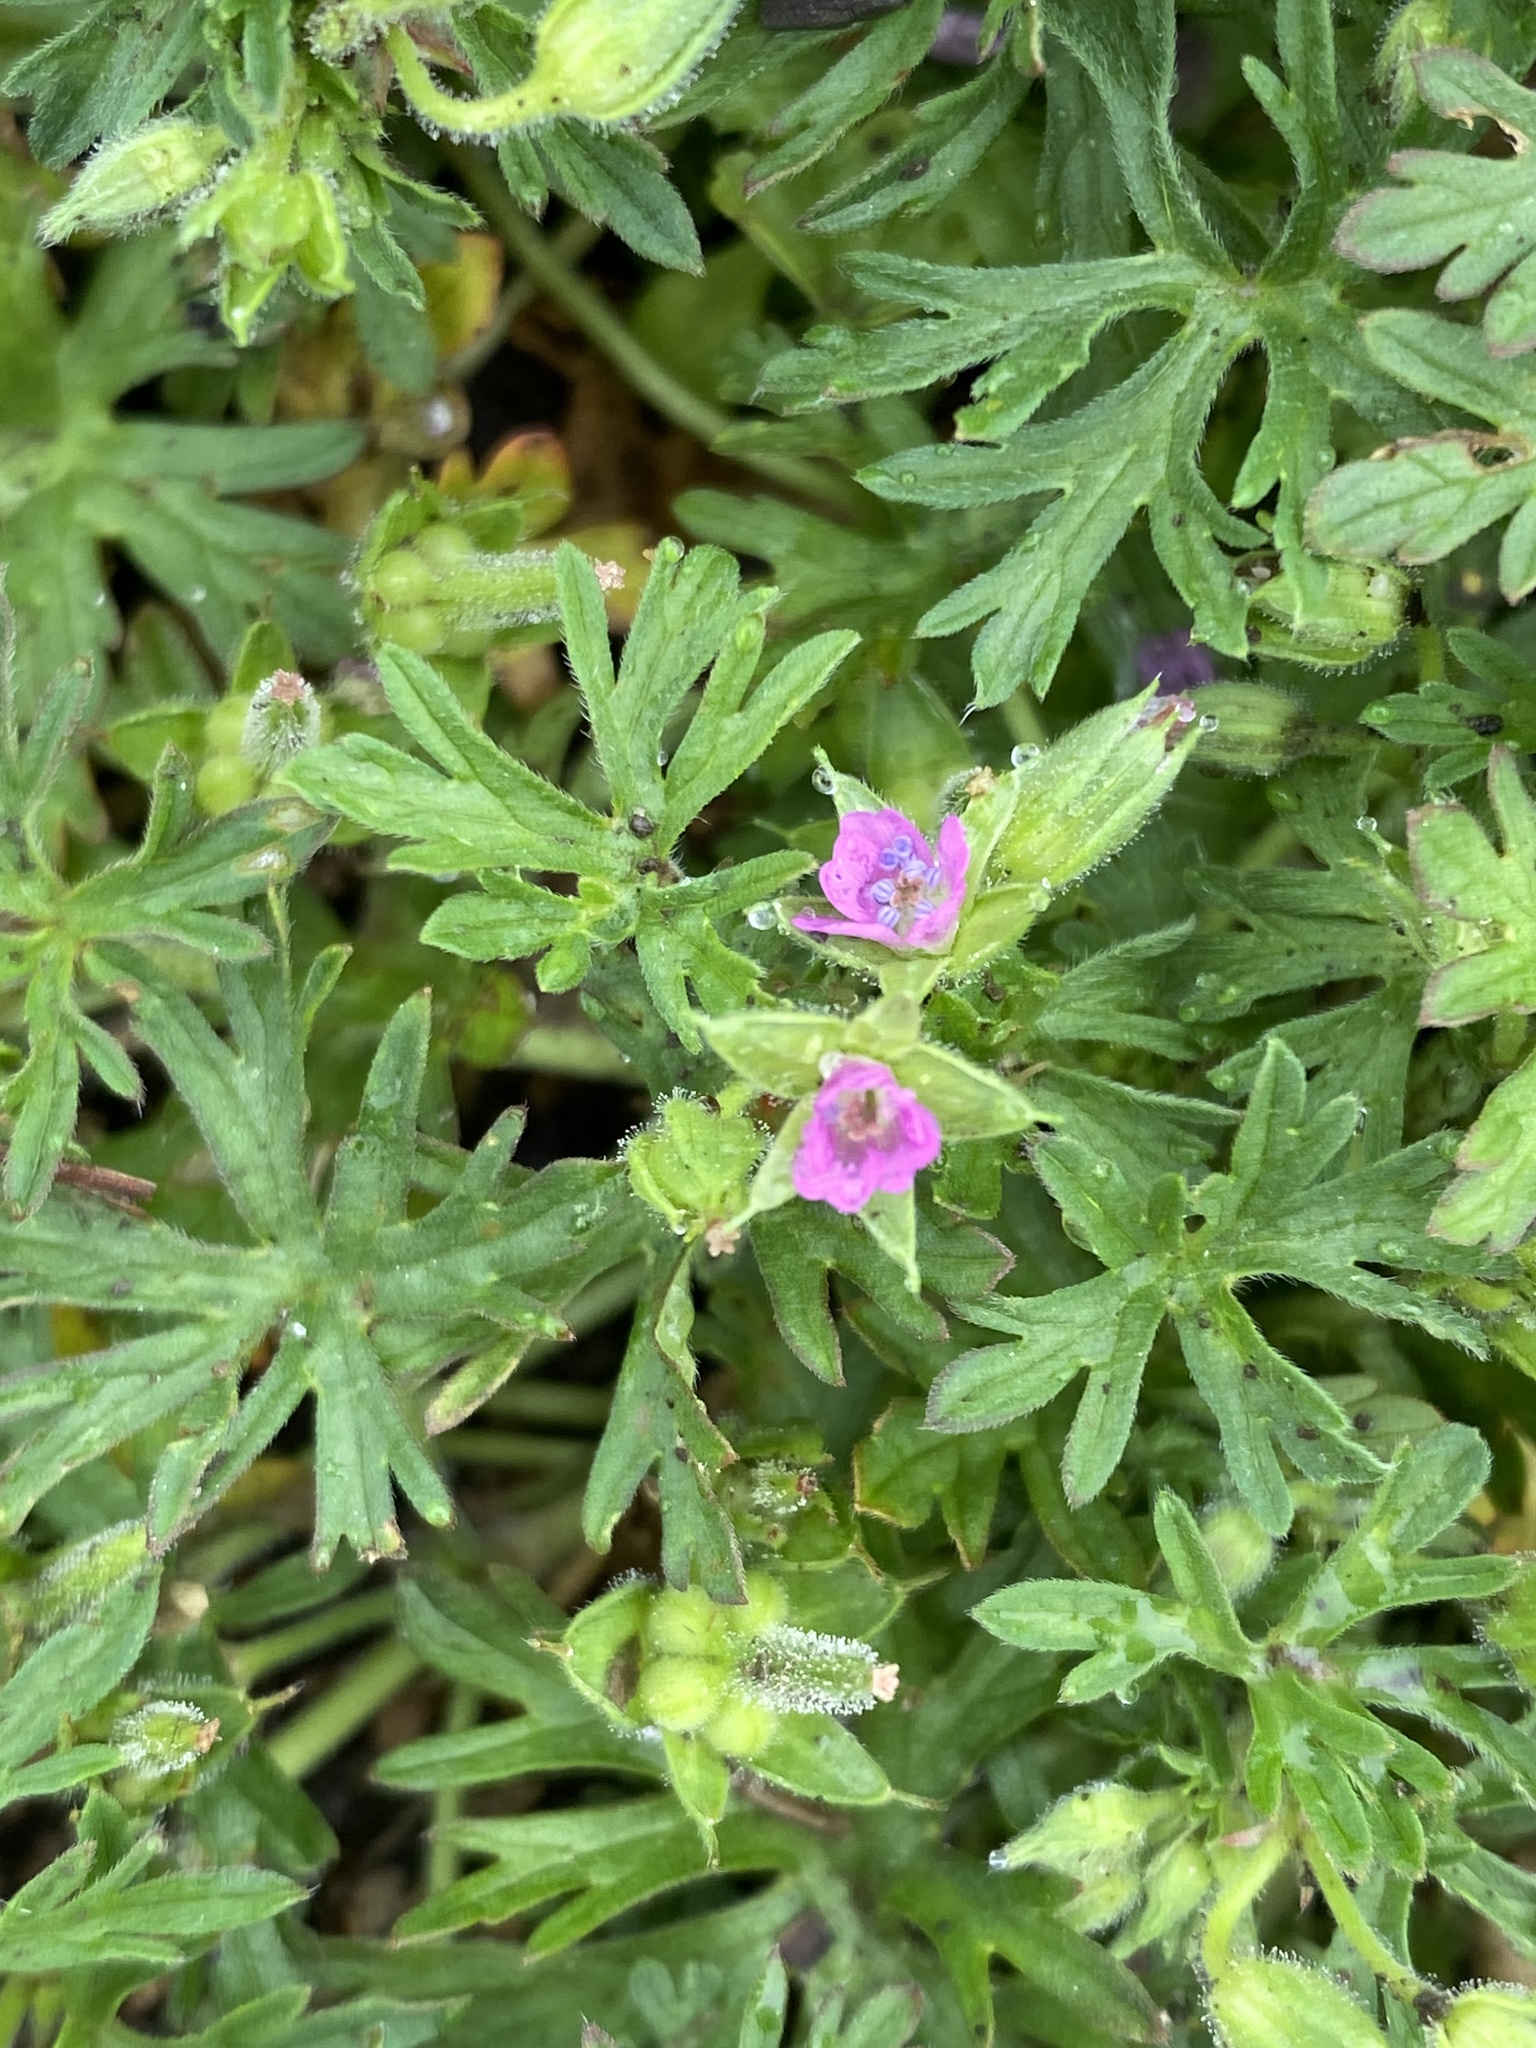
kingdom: Plantae
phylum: Tracheophyta
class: Magnoliopsida
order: Geraniales
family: Geraniaceae
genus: Geranium
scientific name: Geranium dissectum
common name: Cut-leaved crane's-bill
